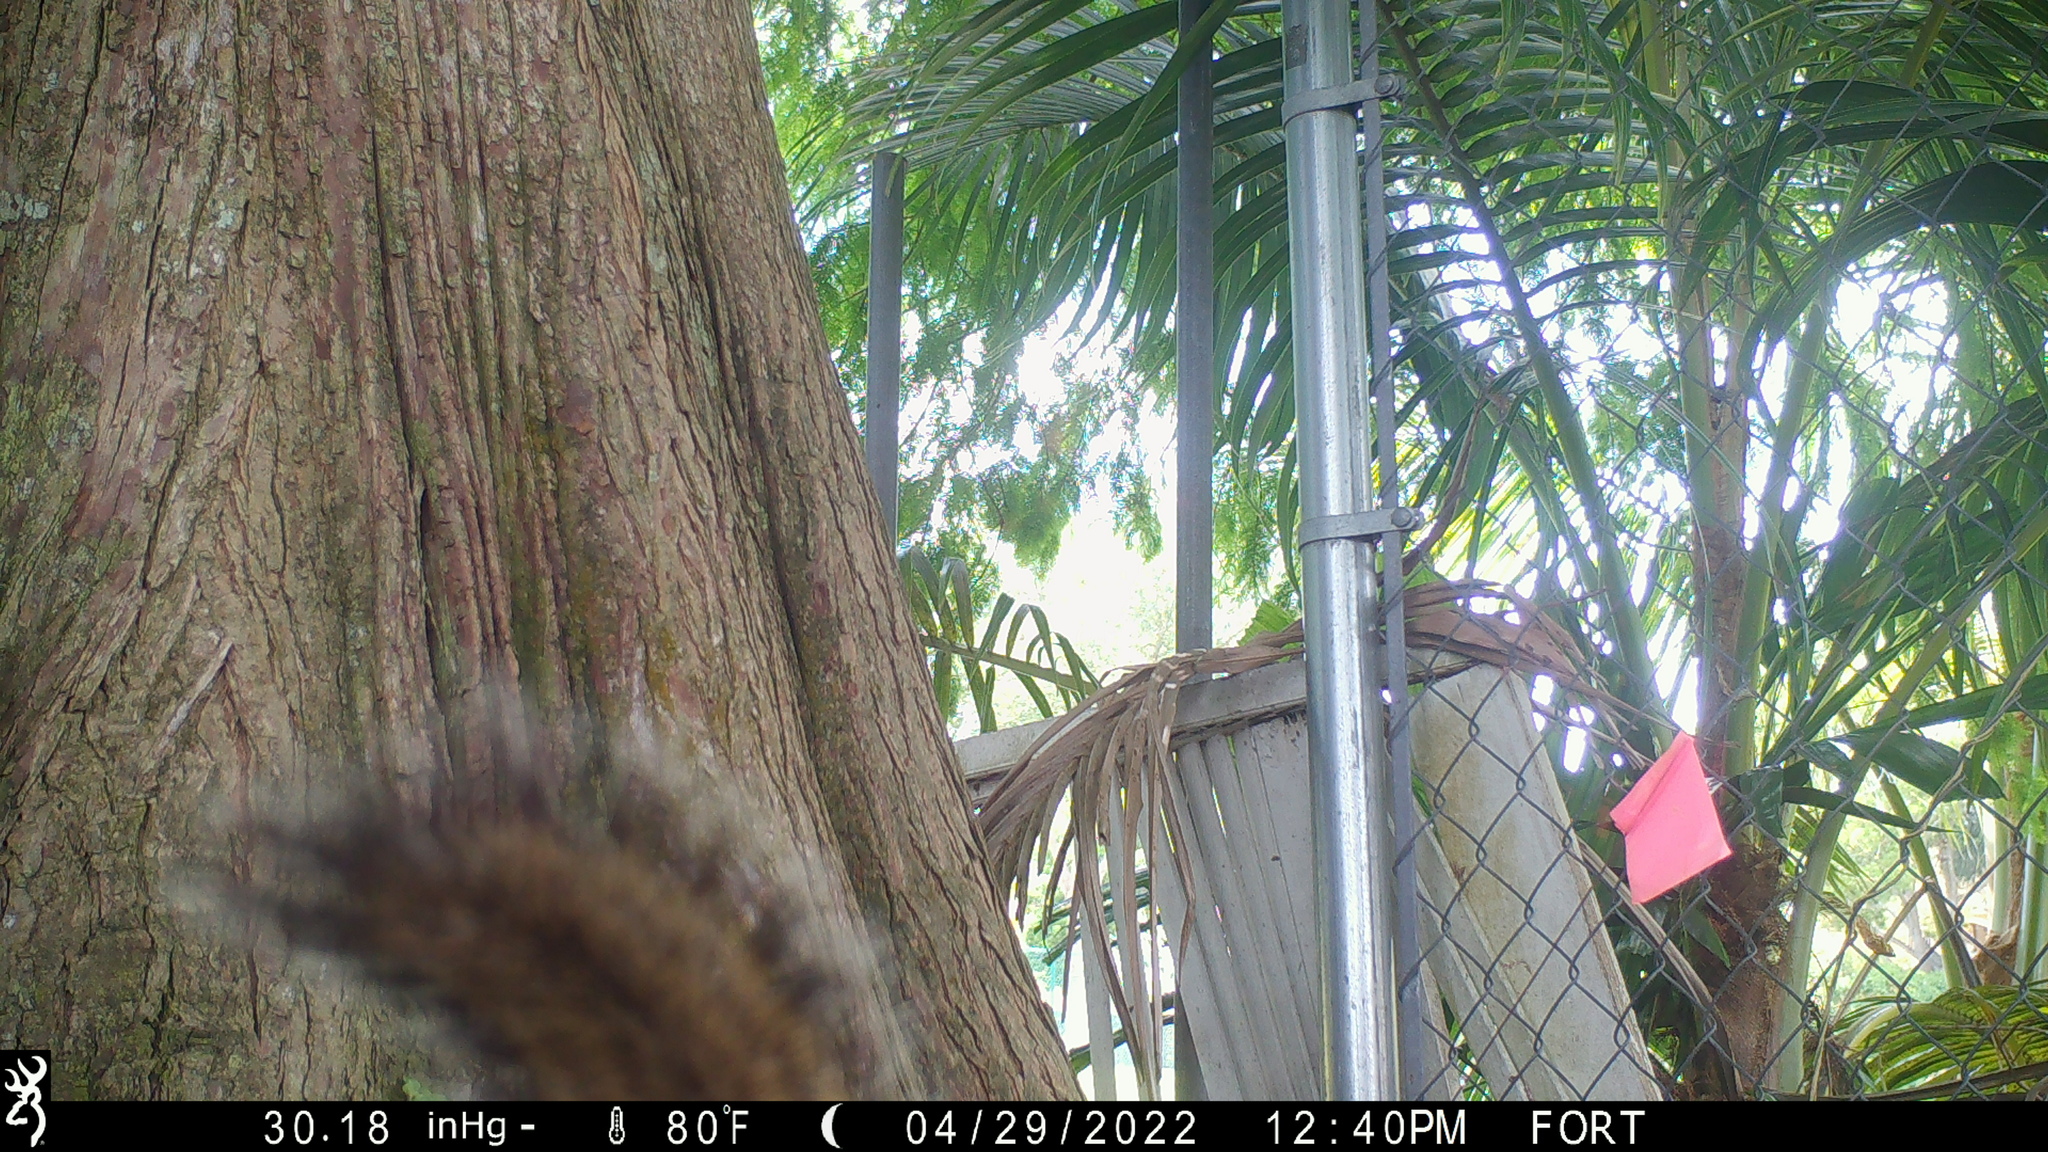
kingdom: Animalia
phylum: Chordata
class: Mammalia
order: Rodentia
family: Sciuridae
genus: Sciurus
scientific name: Sciurus carolinensis
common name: Eastern gray squirrel
